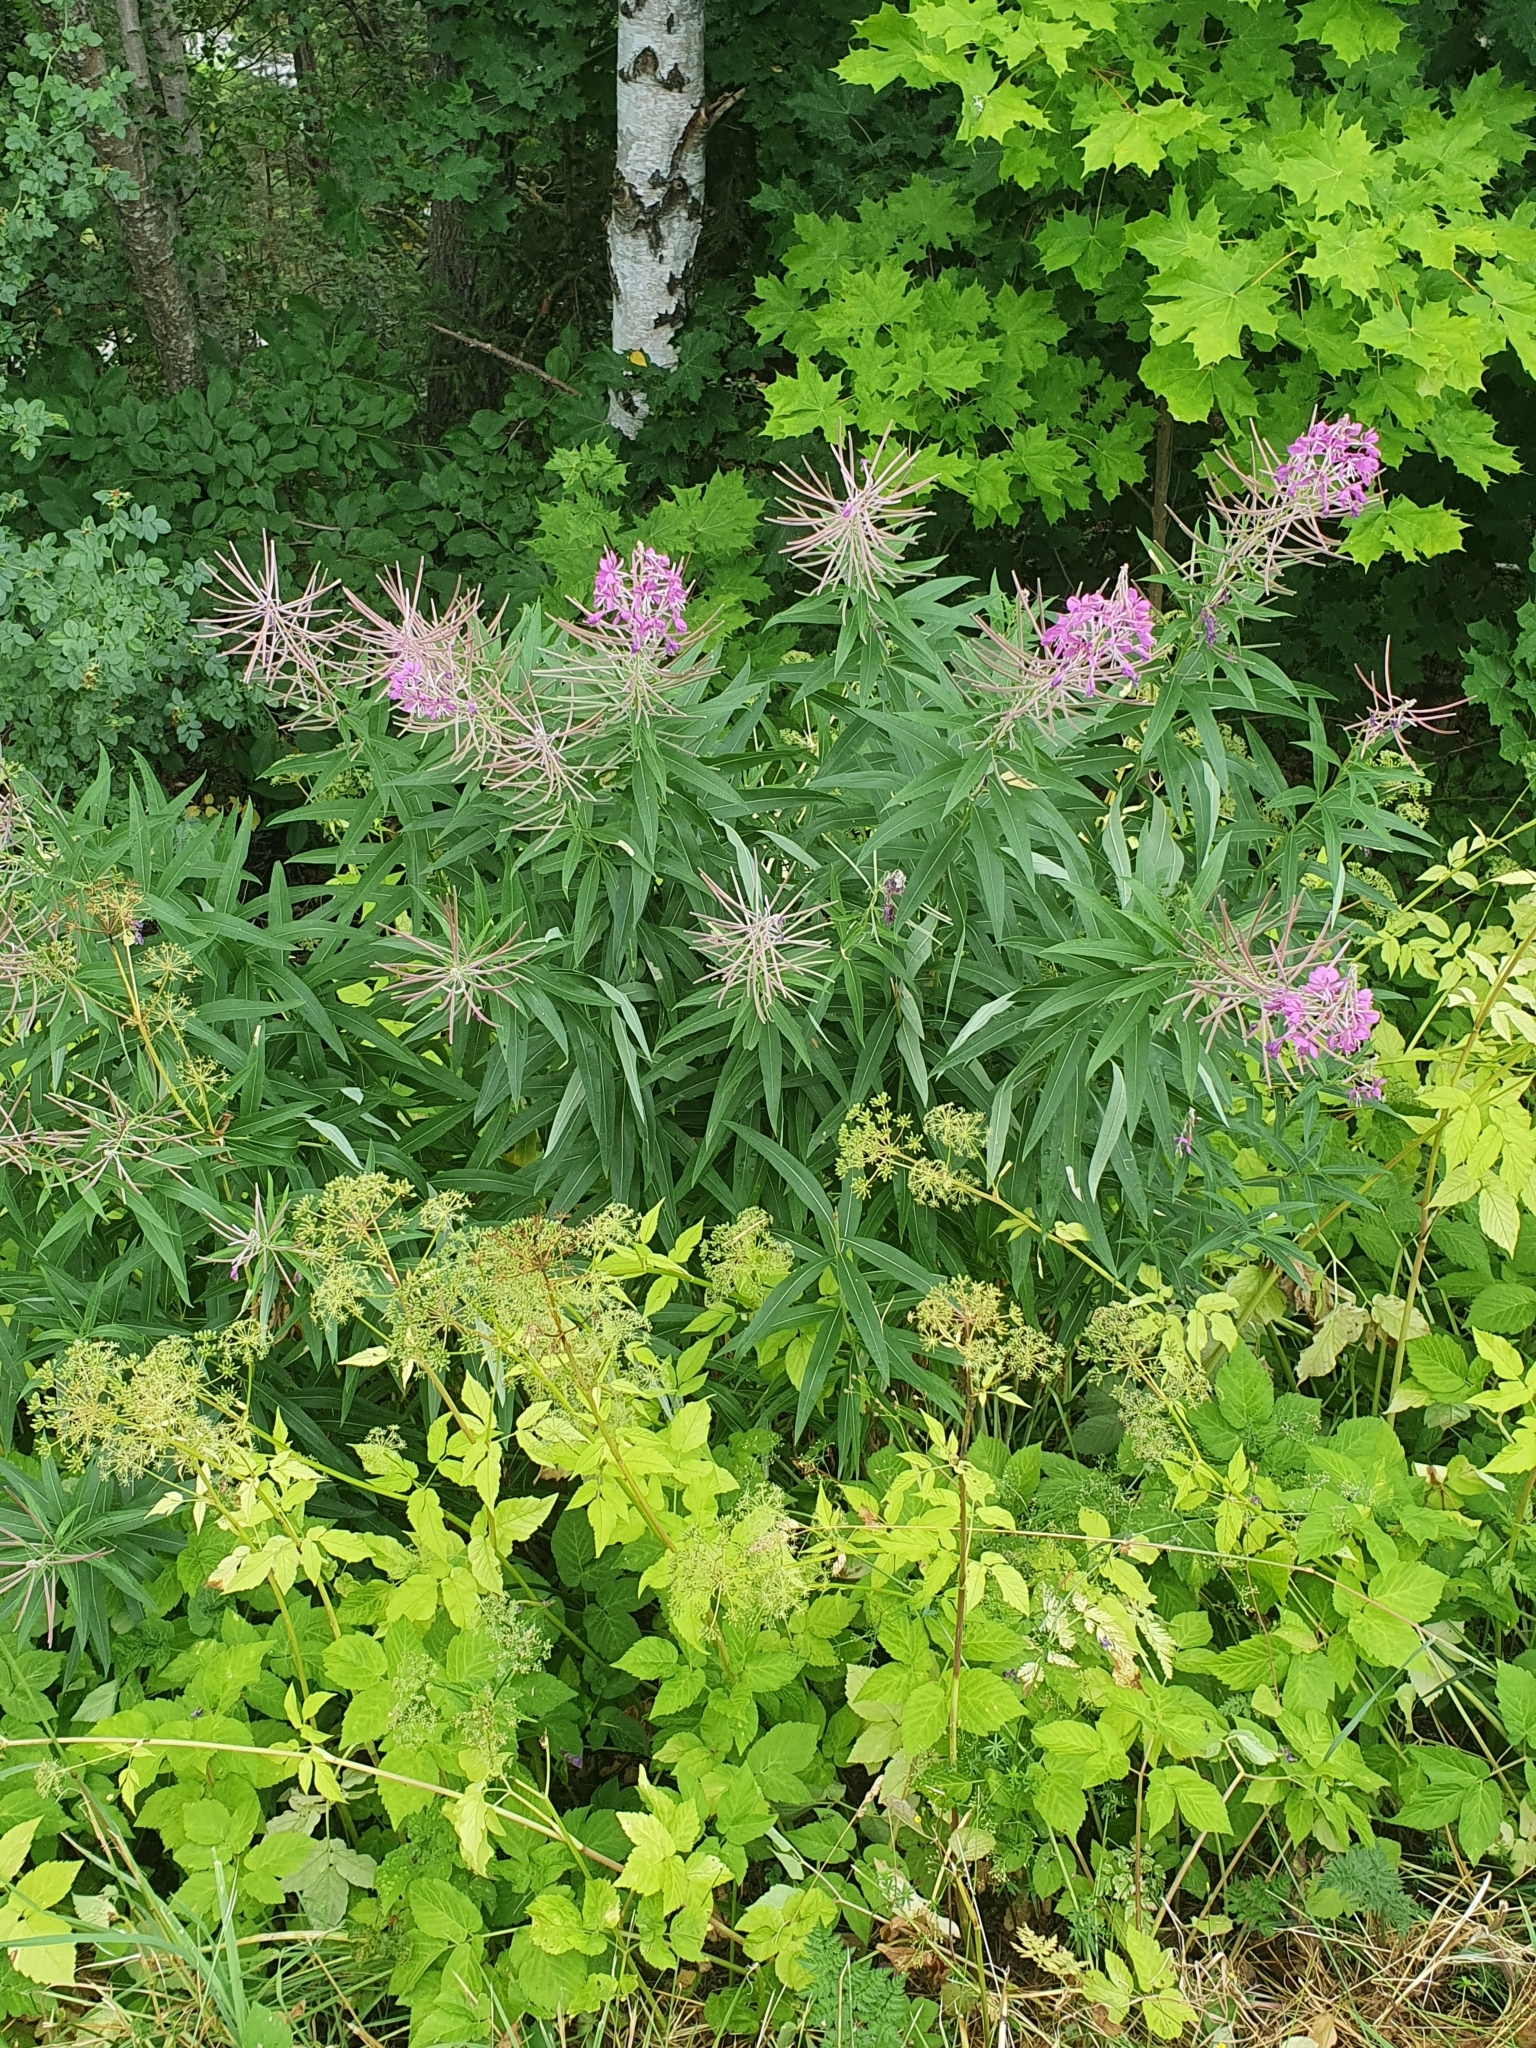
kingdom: Plantae
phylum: Tracheophyta
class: Magnoliopsida
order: Myrtales
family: Onagraceae
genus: Chamaenerion
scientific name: Chamaenerion angustifolium
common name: Fireweed
